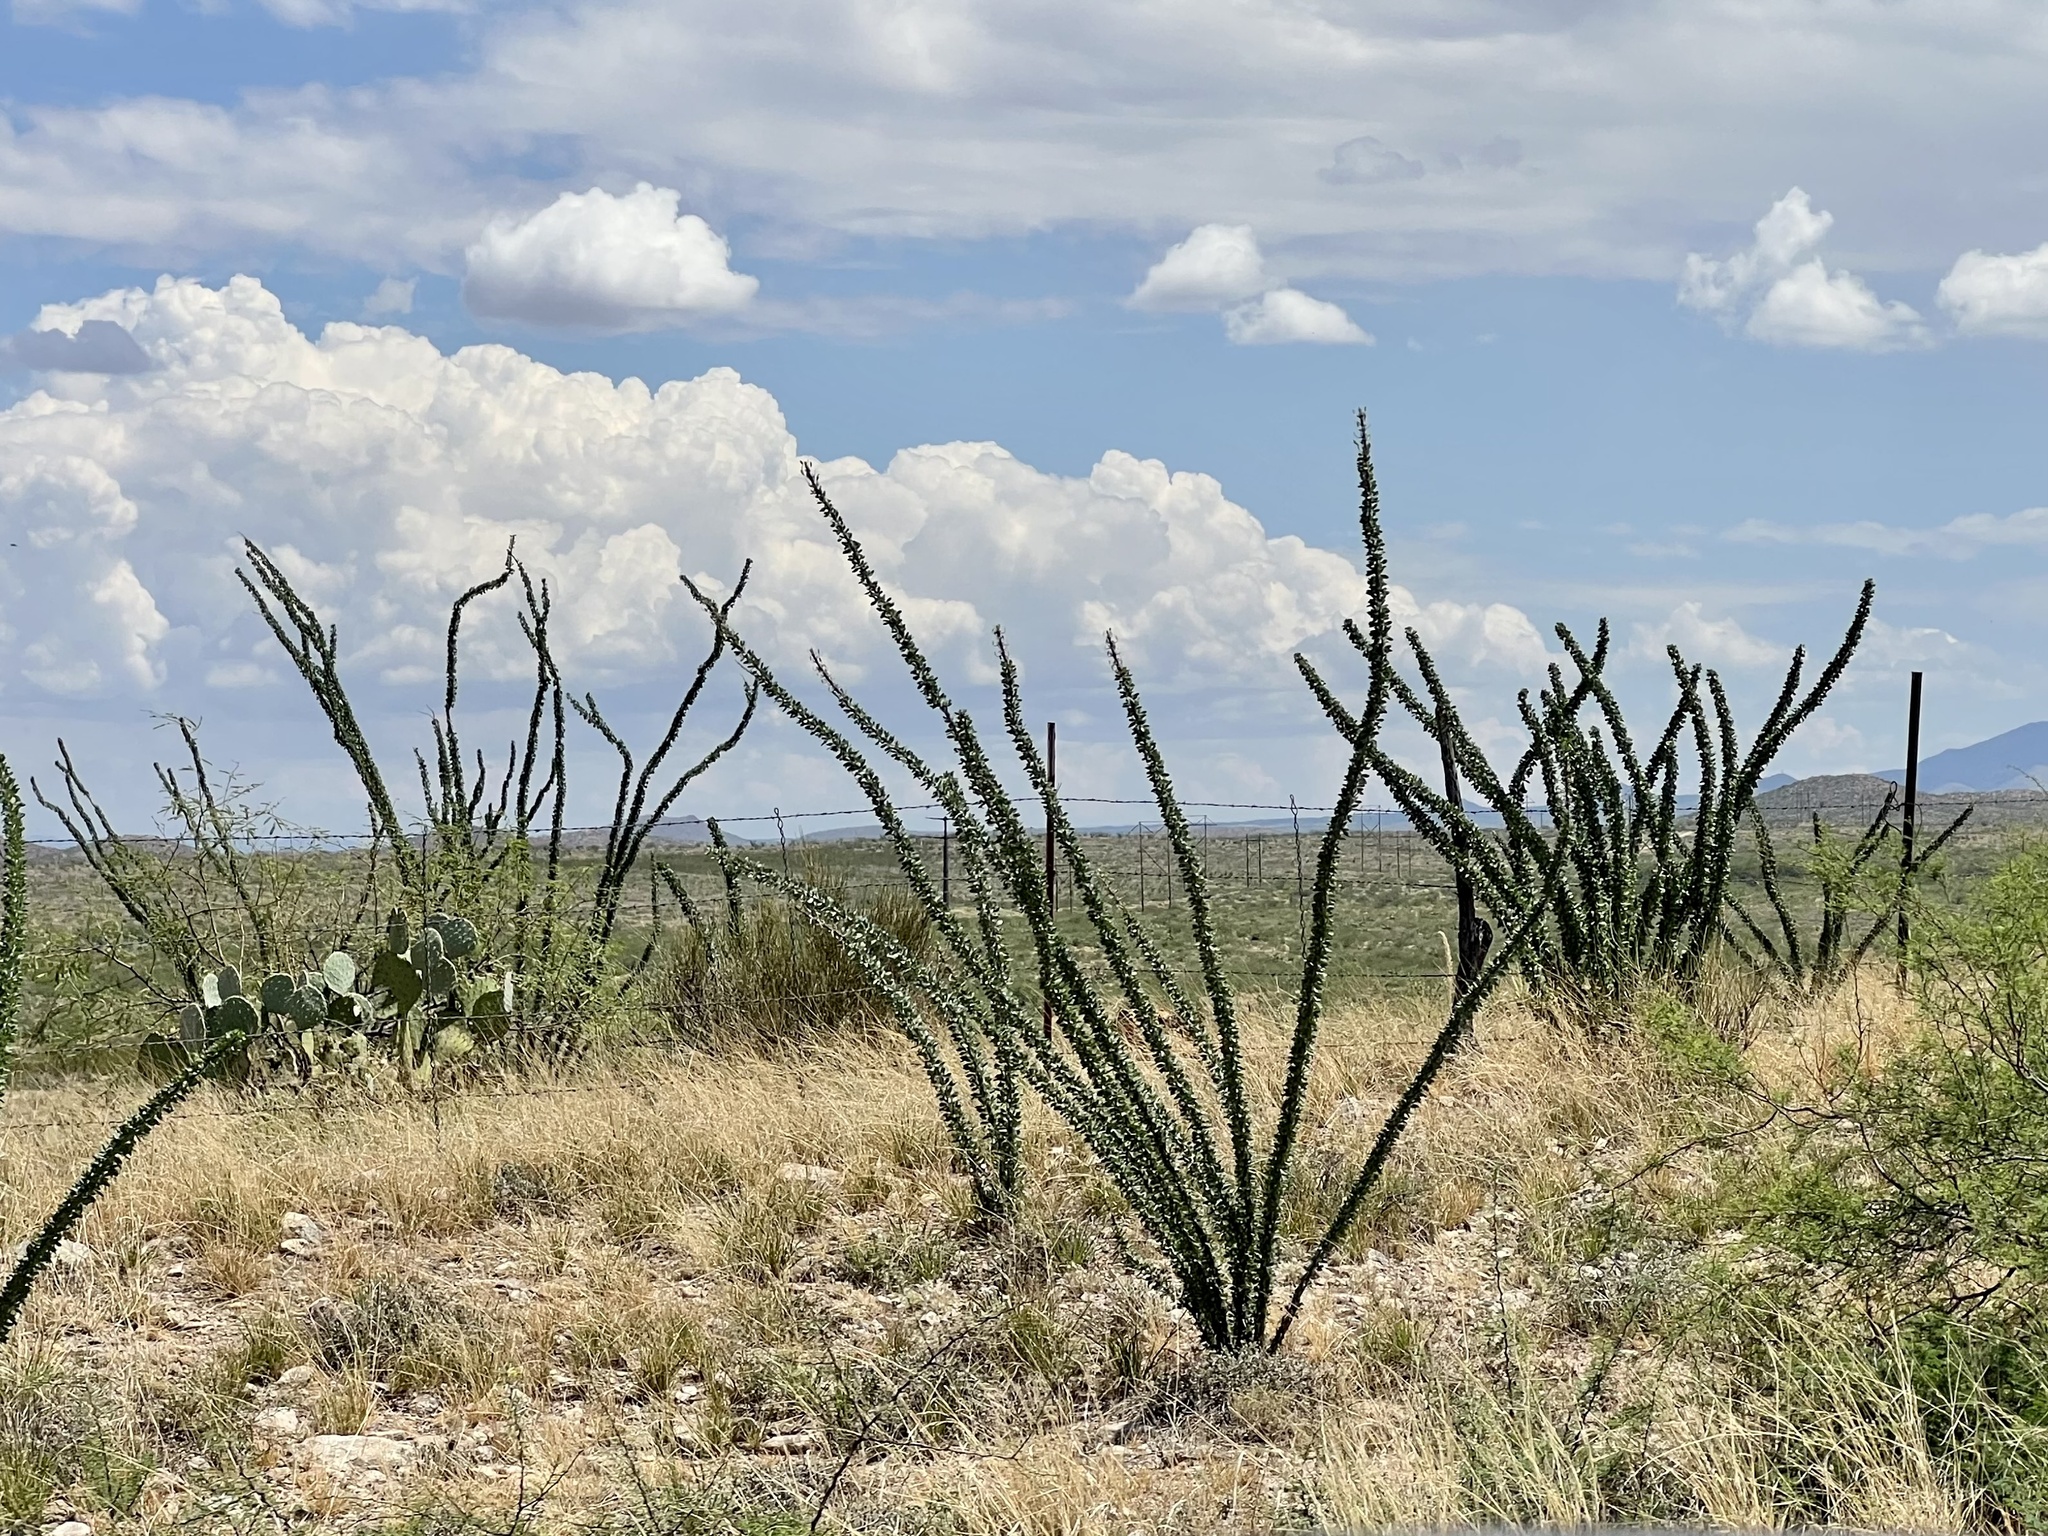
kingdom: Plantae
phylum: Tracheophyta
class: Magnoliopsida
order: Ericales
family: Fouquieriaceae
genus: Fouquieria
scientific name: Fouquieria splendens
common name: Vine-cactus
